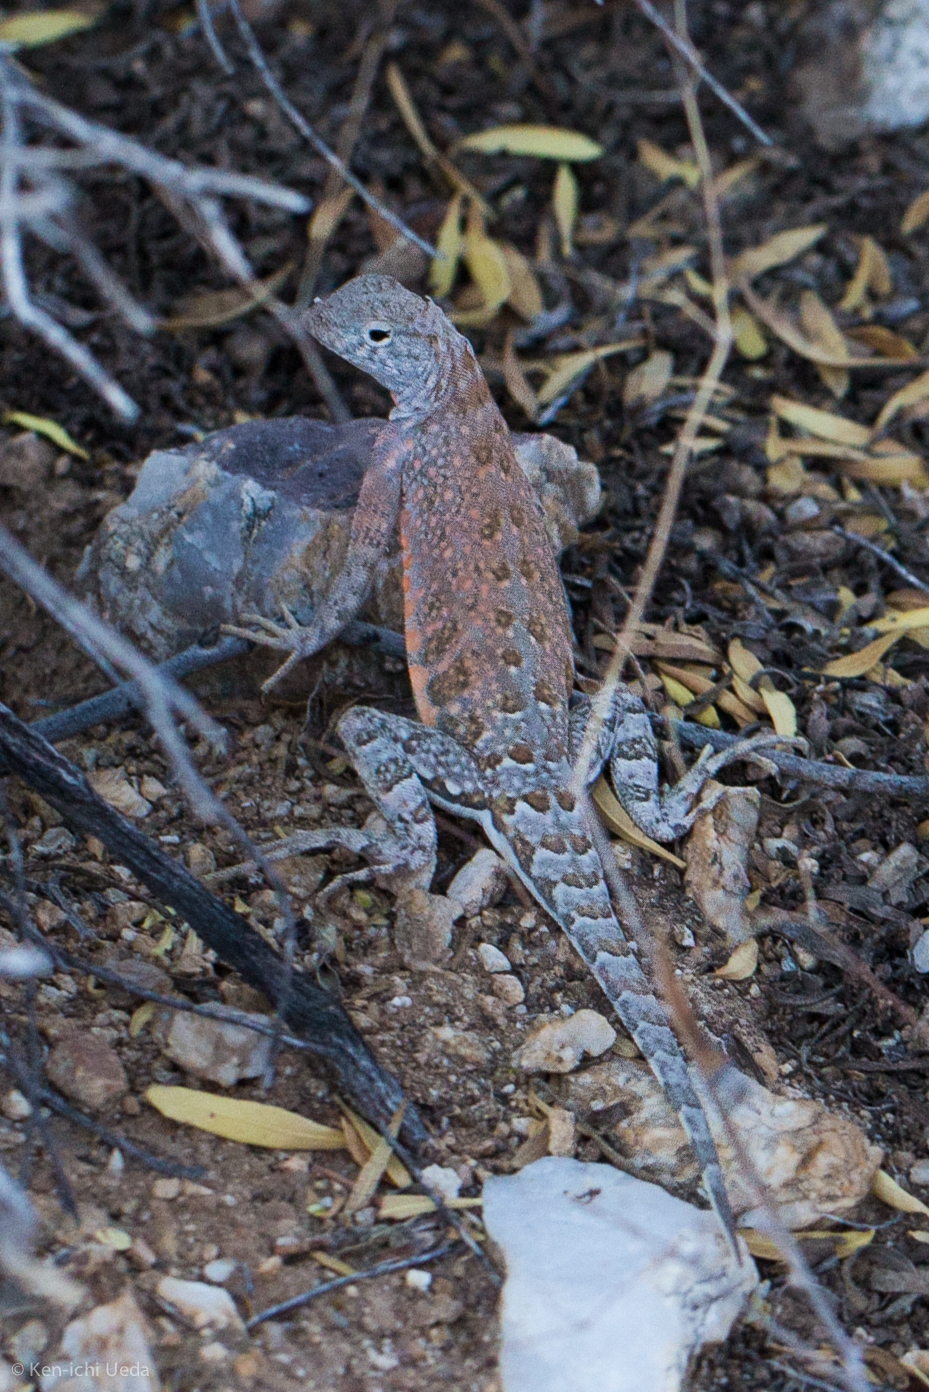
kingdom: Animalia
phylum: Chordata
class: Squamata
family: Phrynosomatidae
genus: Cophosaurus
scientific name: Cophosaurus texanus
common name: Greater earless lizard
